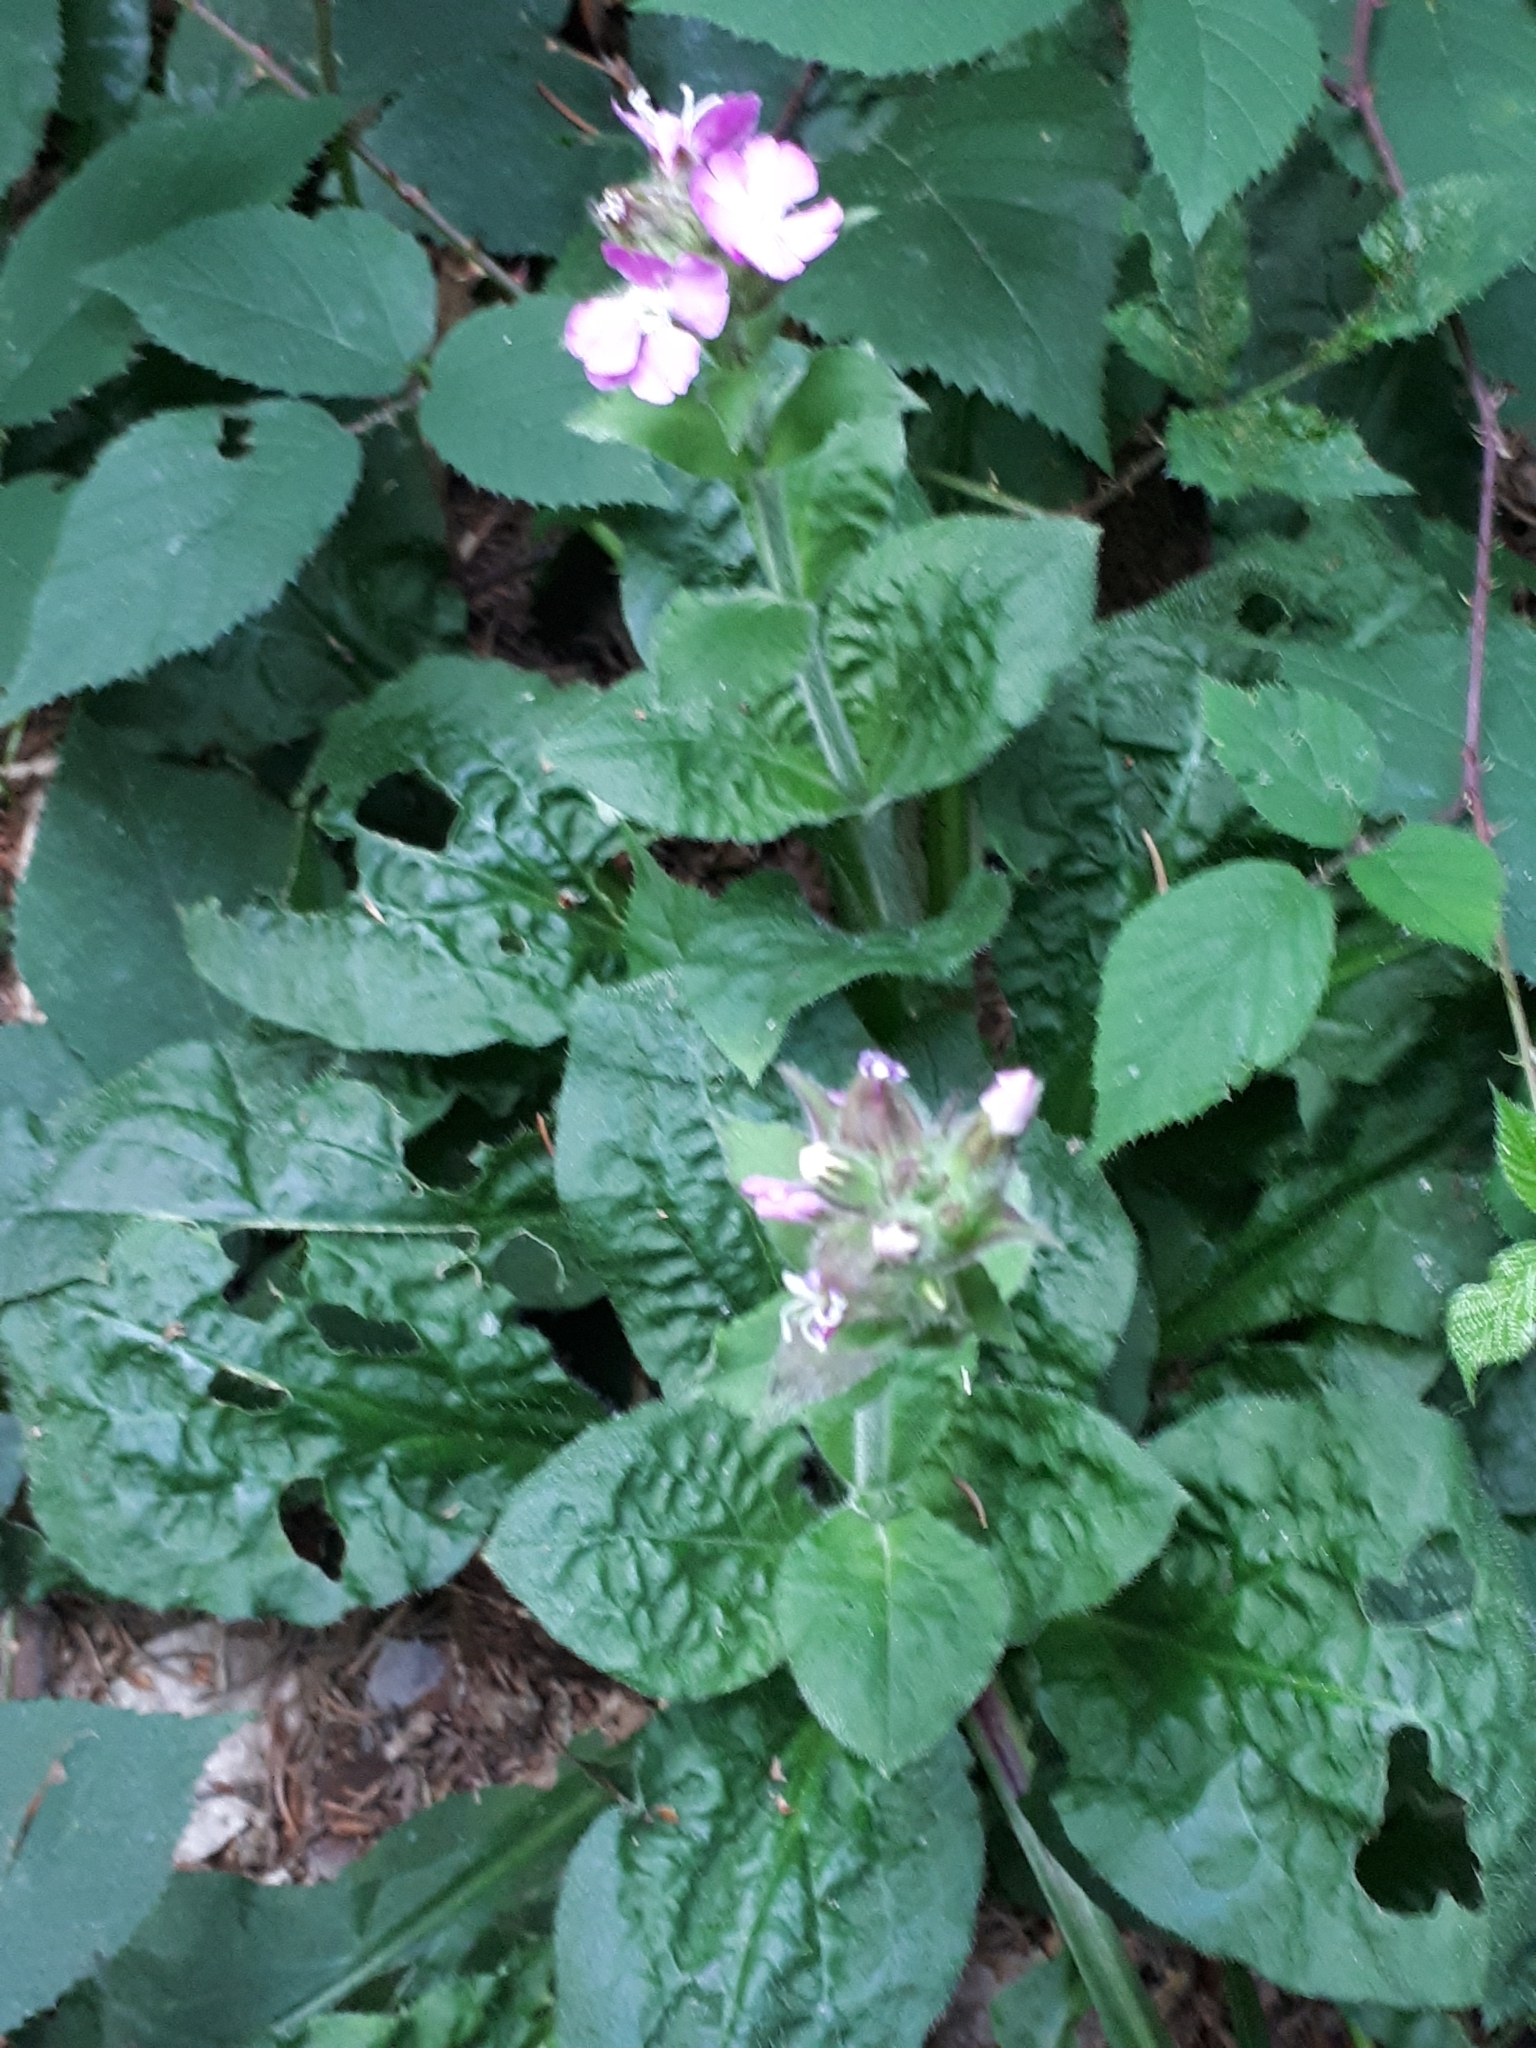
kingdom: Plantae
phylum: Tracheophyta
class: Magnoliopsida
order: Caryophyllales
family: Caryophyllaceae
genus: Silene
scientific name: Silene dioica
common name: Red campion
